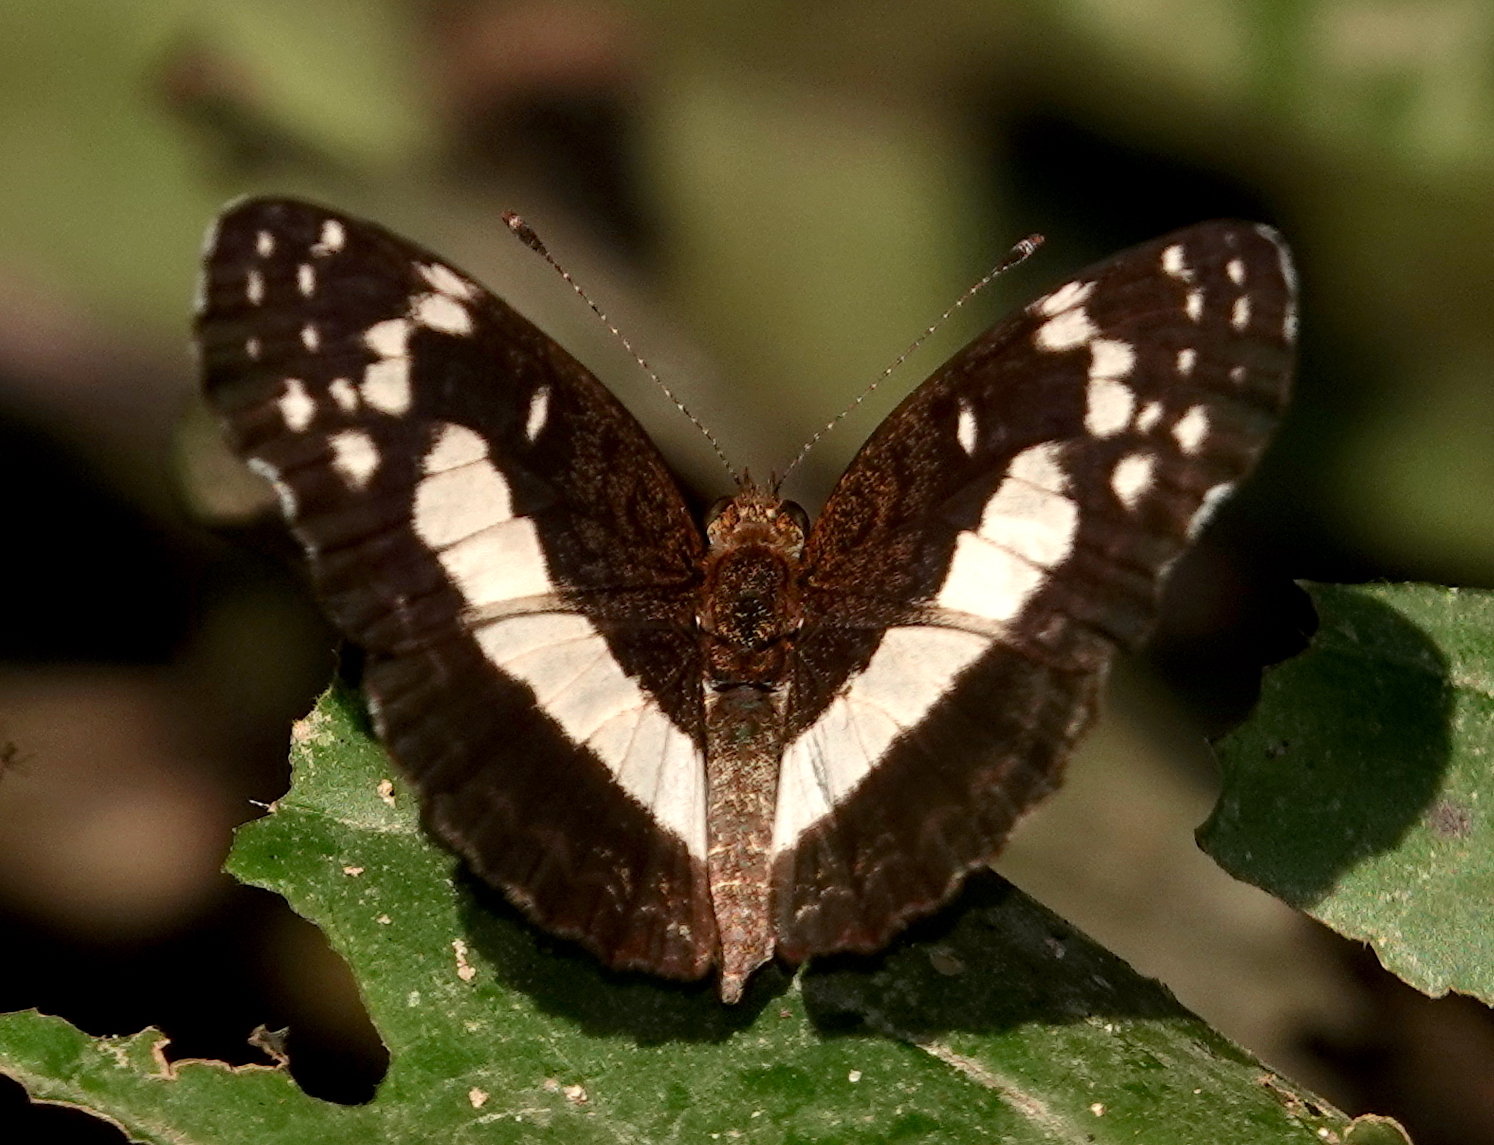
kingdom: Animalia
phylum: Arthropoda
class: Insecta
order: Lepidoptera
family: Nymphalidae
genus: Castilia
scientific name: Castilia ofella
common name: White-dotted crescent
